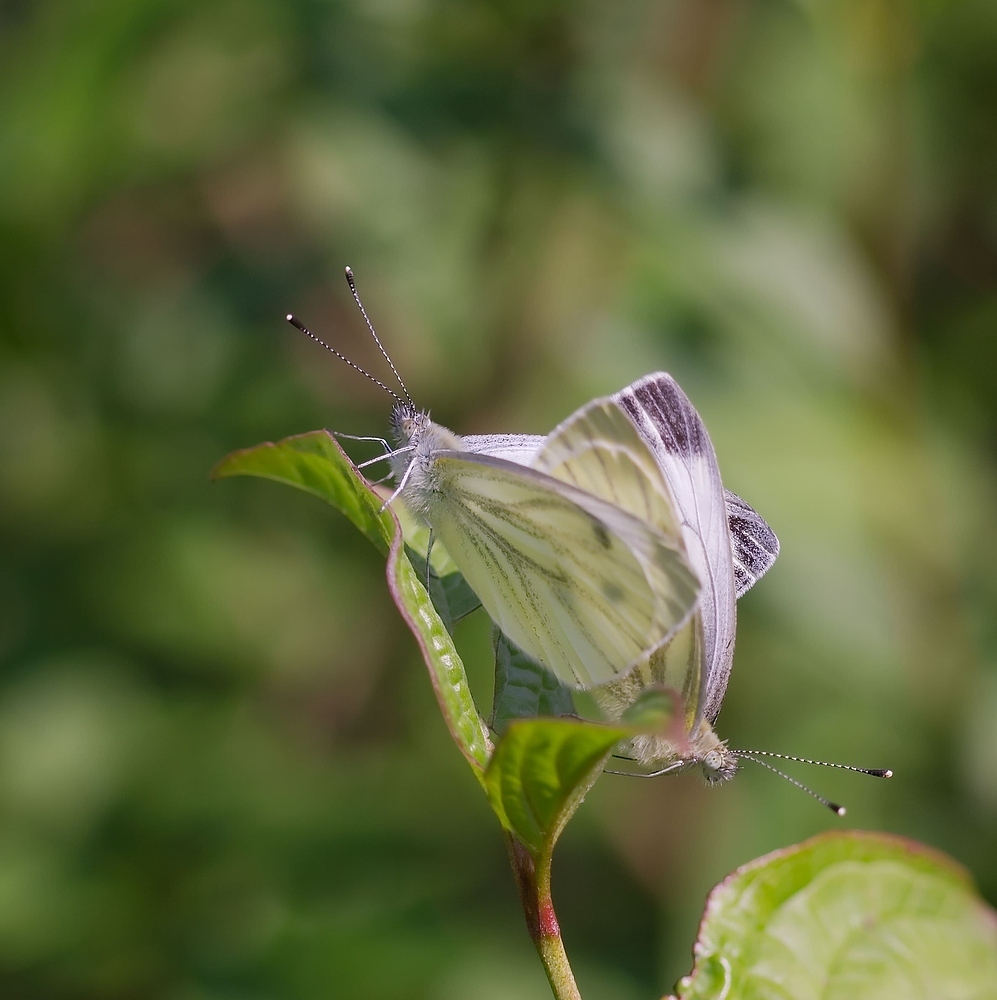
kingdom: Animalia
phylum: Arthropoda
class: Insecta
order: Lepidoptera
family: Pieridae
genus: Pieris
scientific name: Pieris napi
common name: Green-veined white
